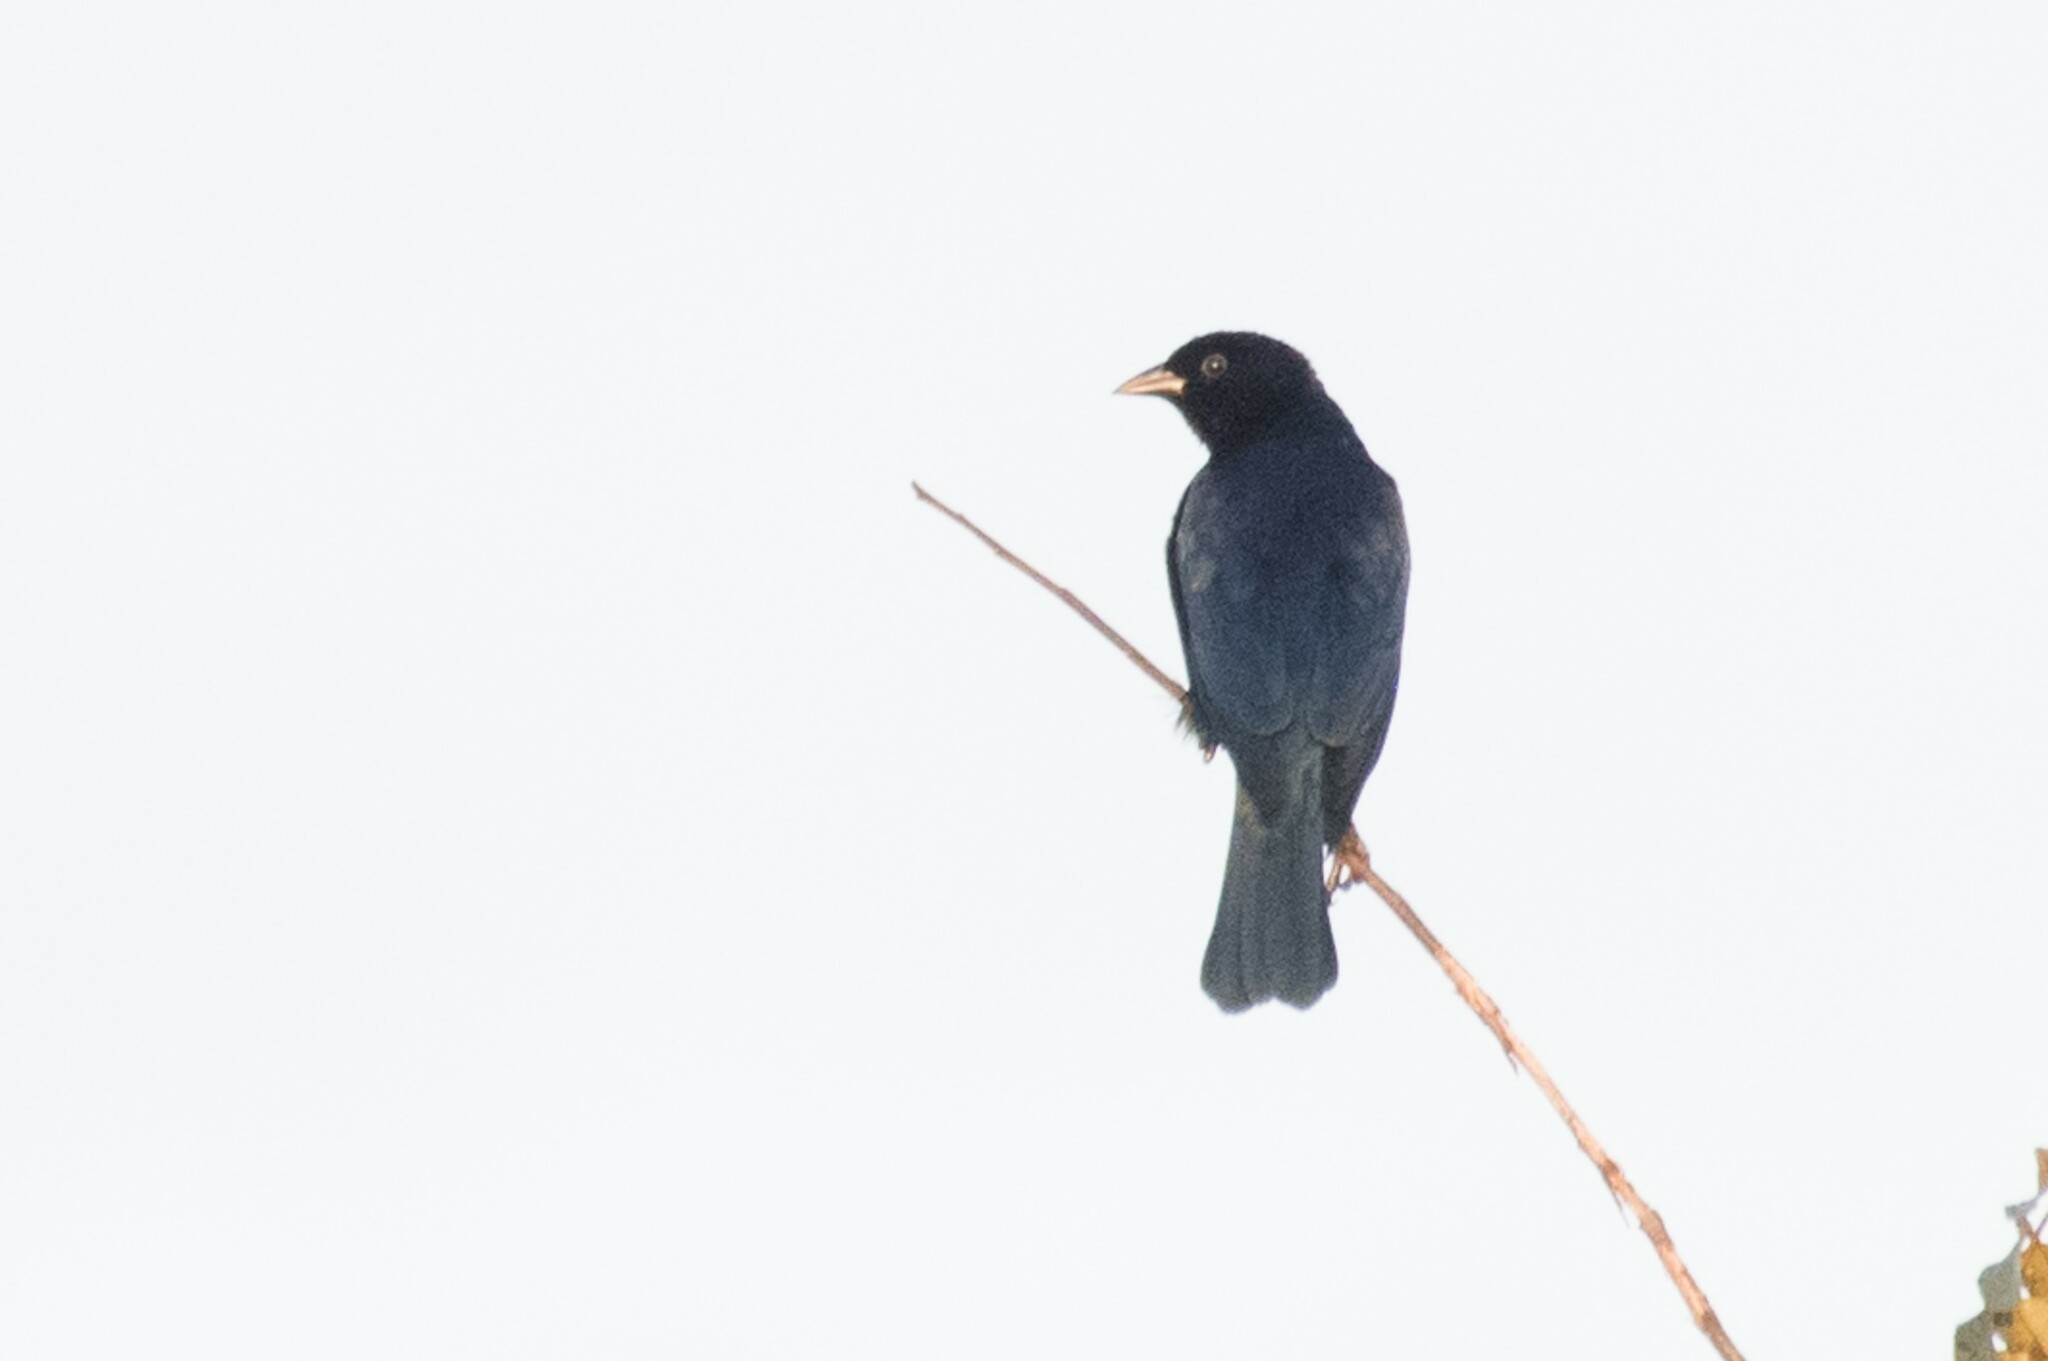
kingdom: Animalia
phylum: Chordata
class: Aves
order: Passeriformes
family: Icteridae
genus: Molothrus
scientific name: Molothrus bonariensis
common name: Shiny cowbird
